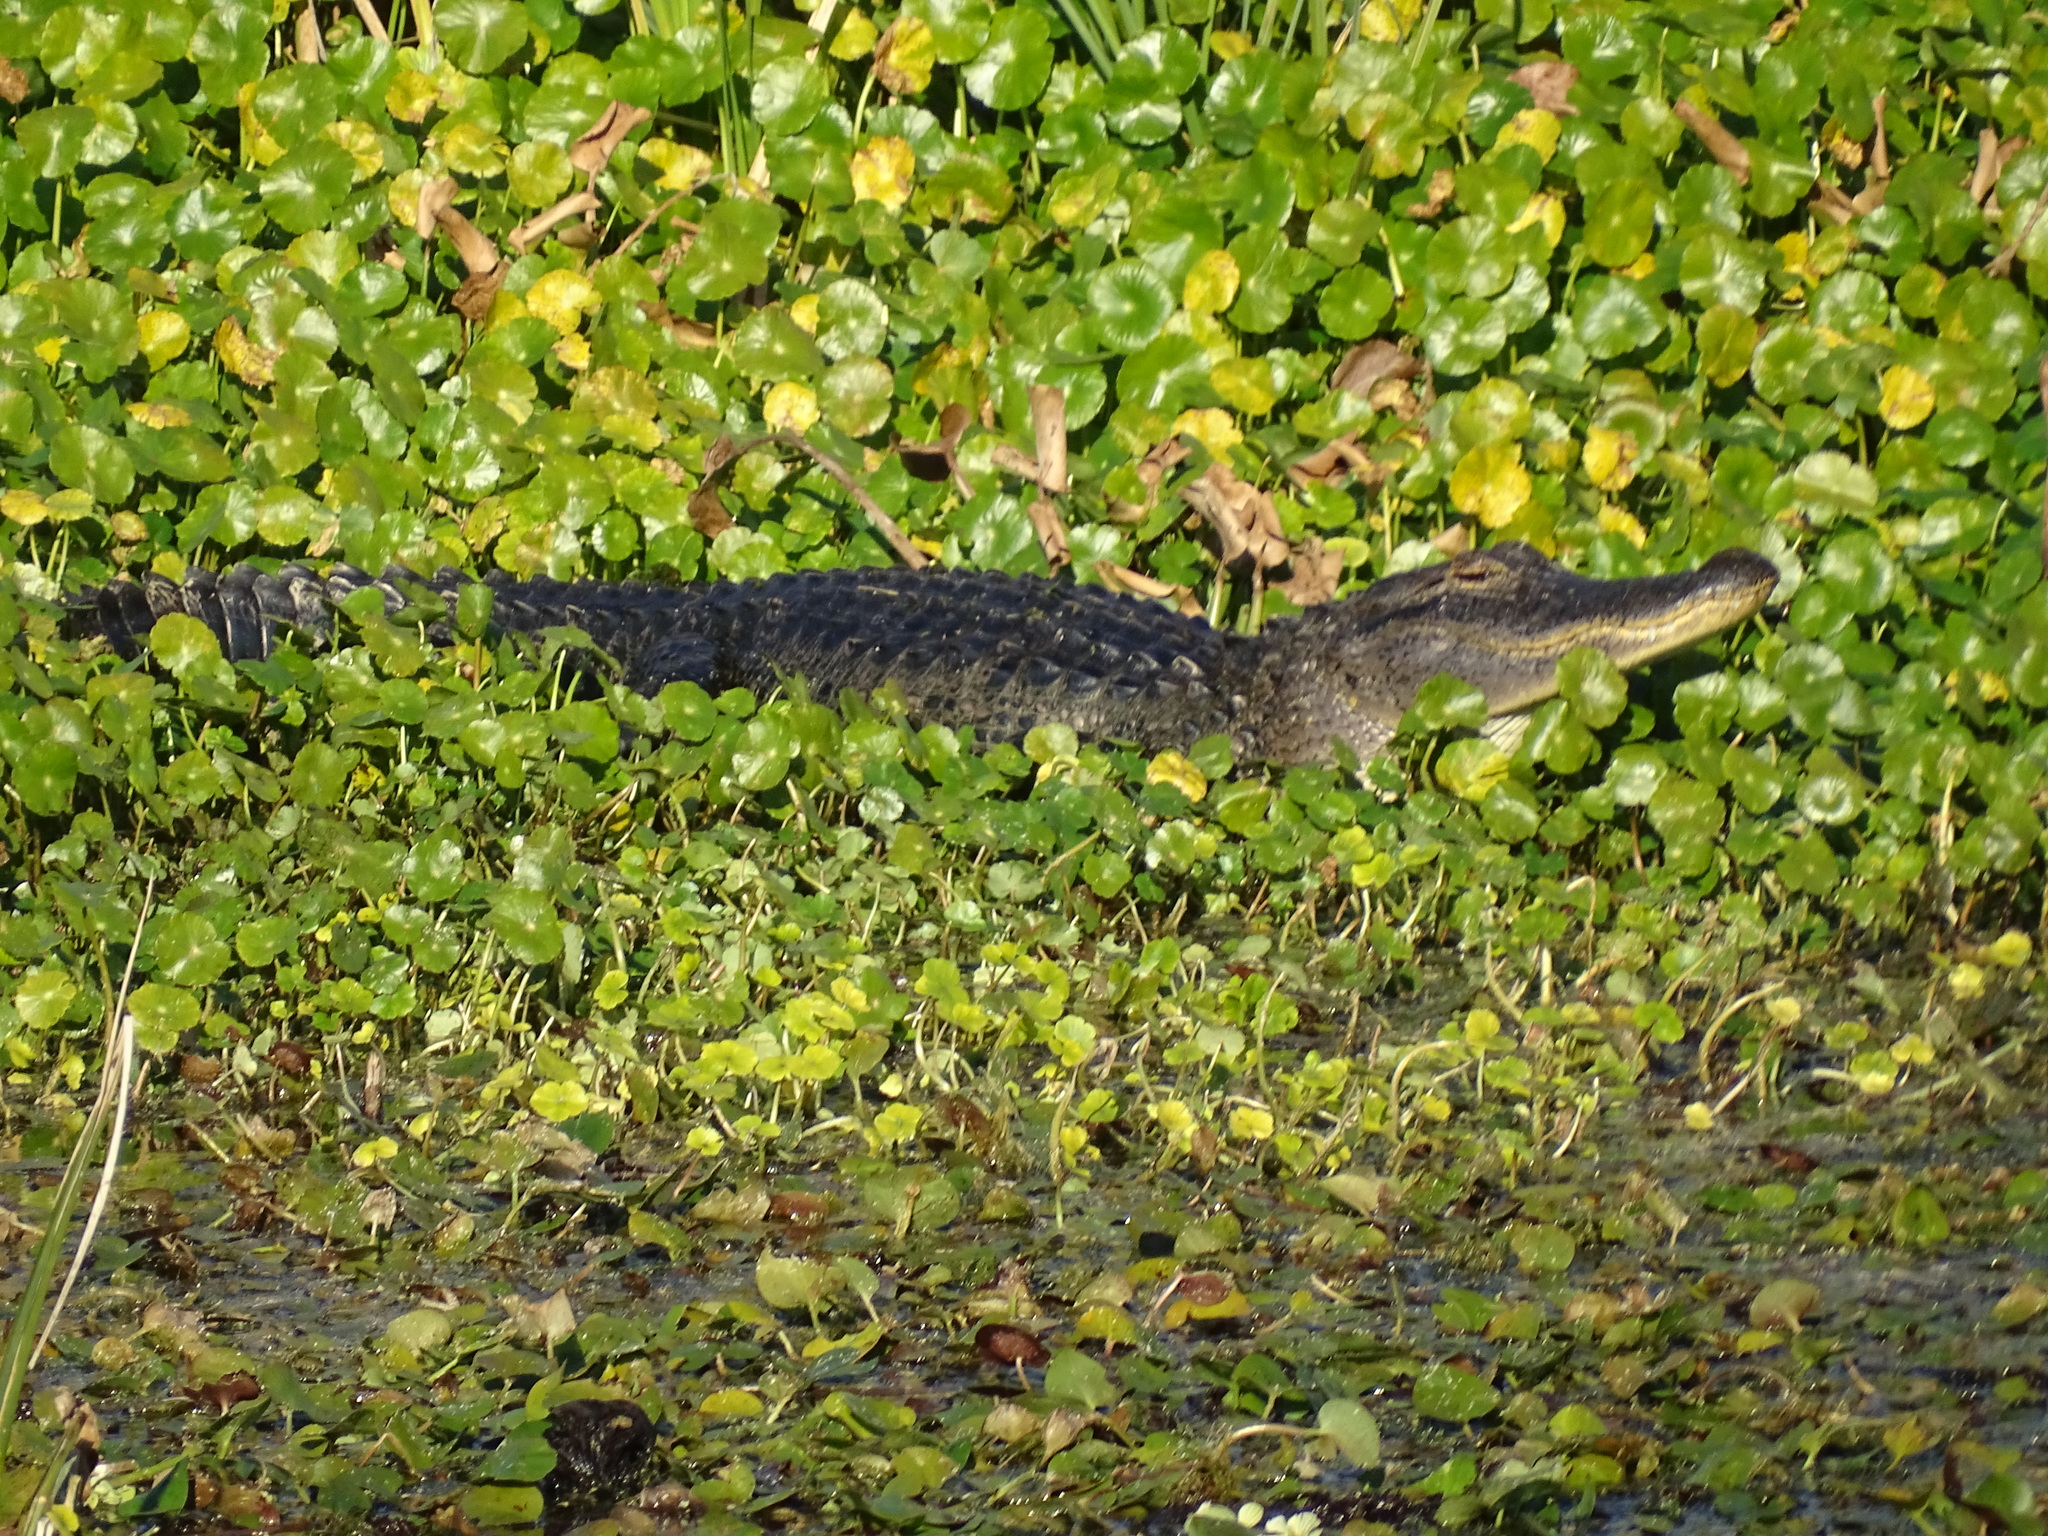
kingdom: Animalia
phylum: Chordata
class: Crocodylia
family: Alligatoridae
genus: Alligator
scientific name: Alligator mississippiensis
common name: American alligator
